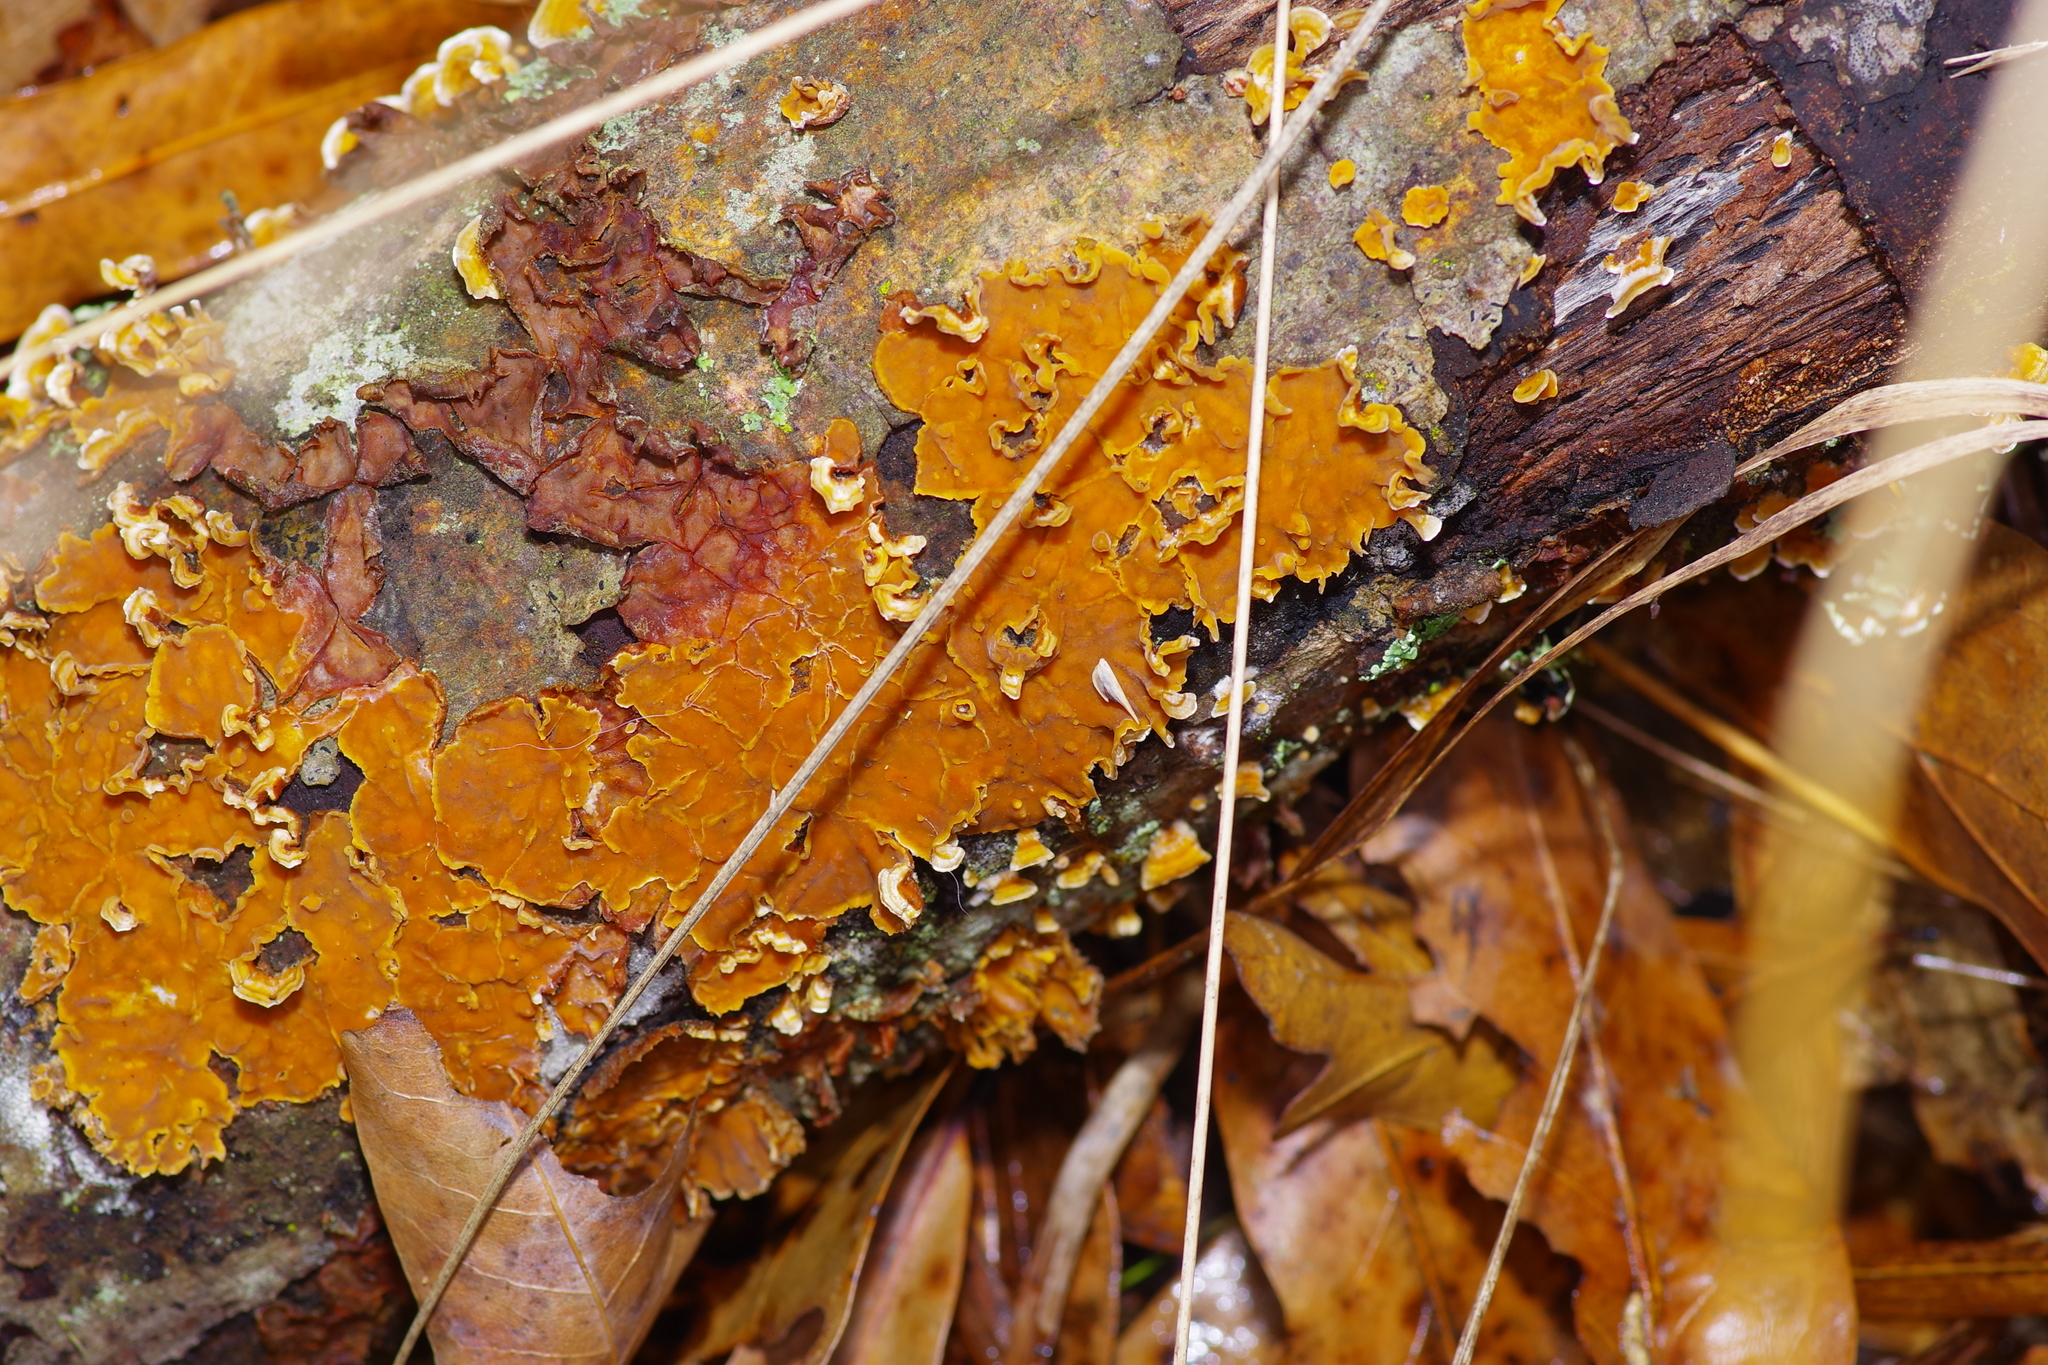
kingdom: Fungi
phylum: Basidiomycota
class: Agaricomycetes
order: Russulales
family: Stereaceae
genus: Stereum
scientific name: Stereum complicatum
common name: Crowded parchment
